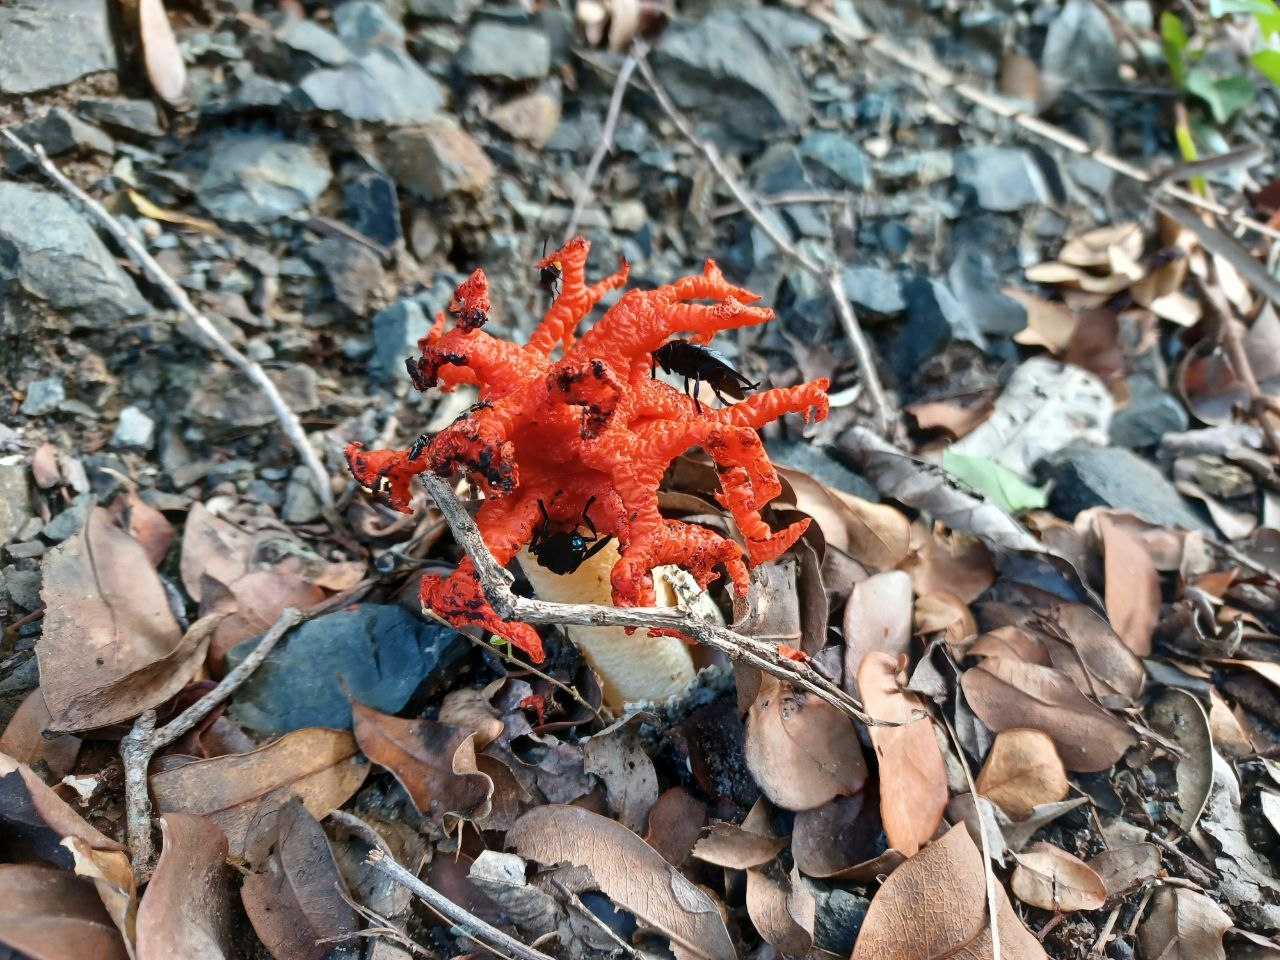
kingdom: Fungi
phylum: Basidiomycota
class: Agaricomycetes
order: Phallales
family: Phallaceae
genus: Lysurus
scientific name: Lysurus corallocephalus
